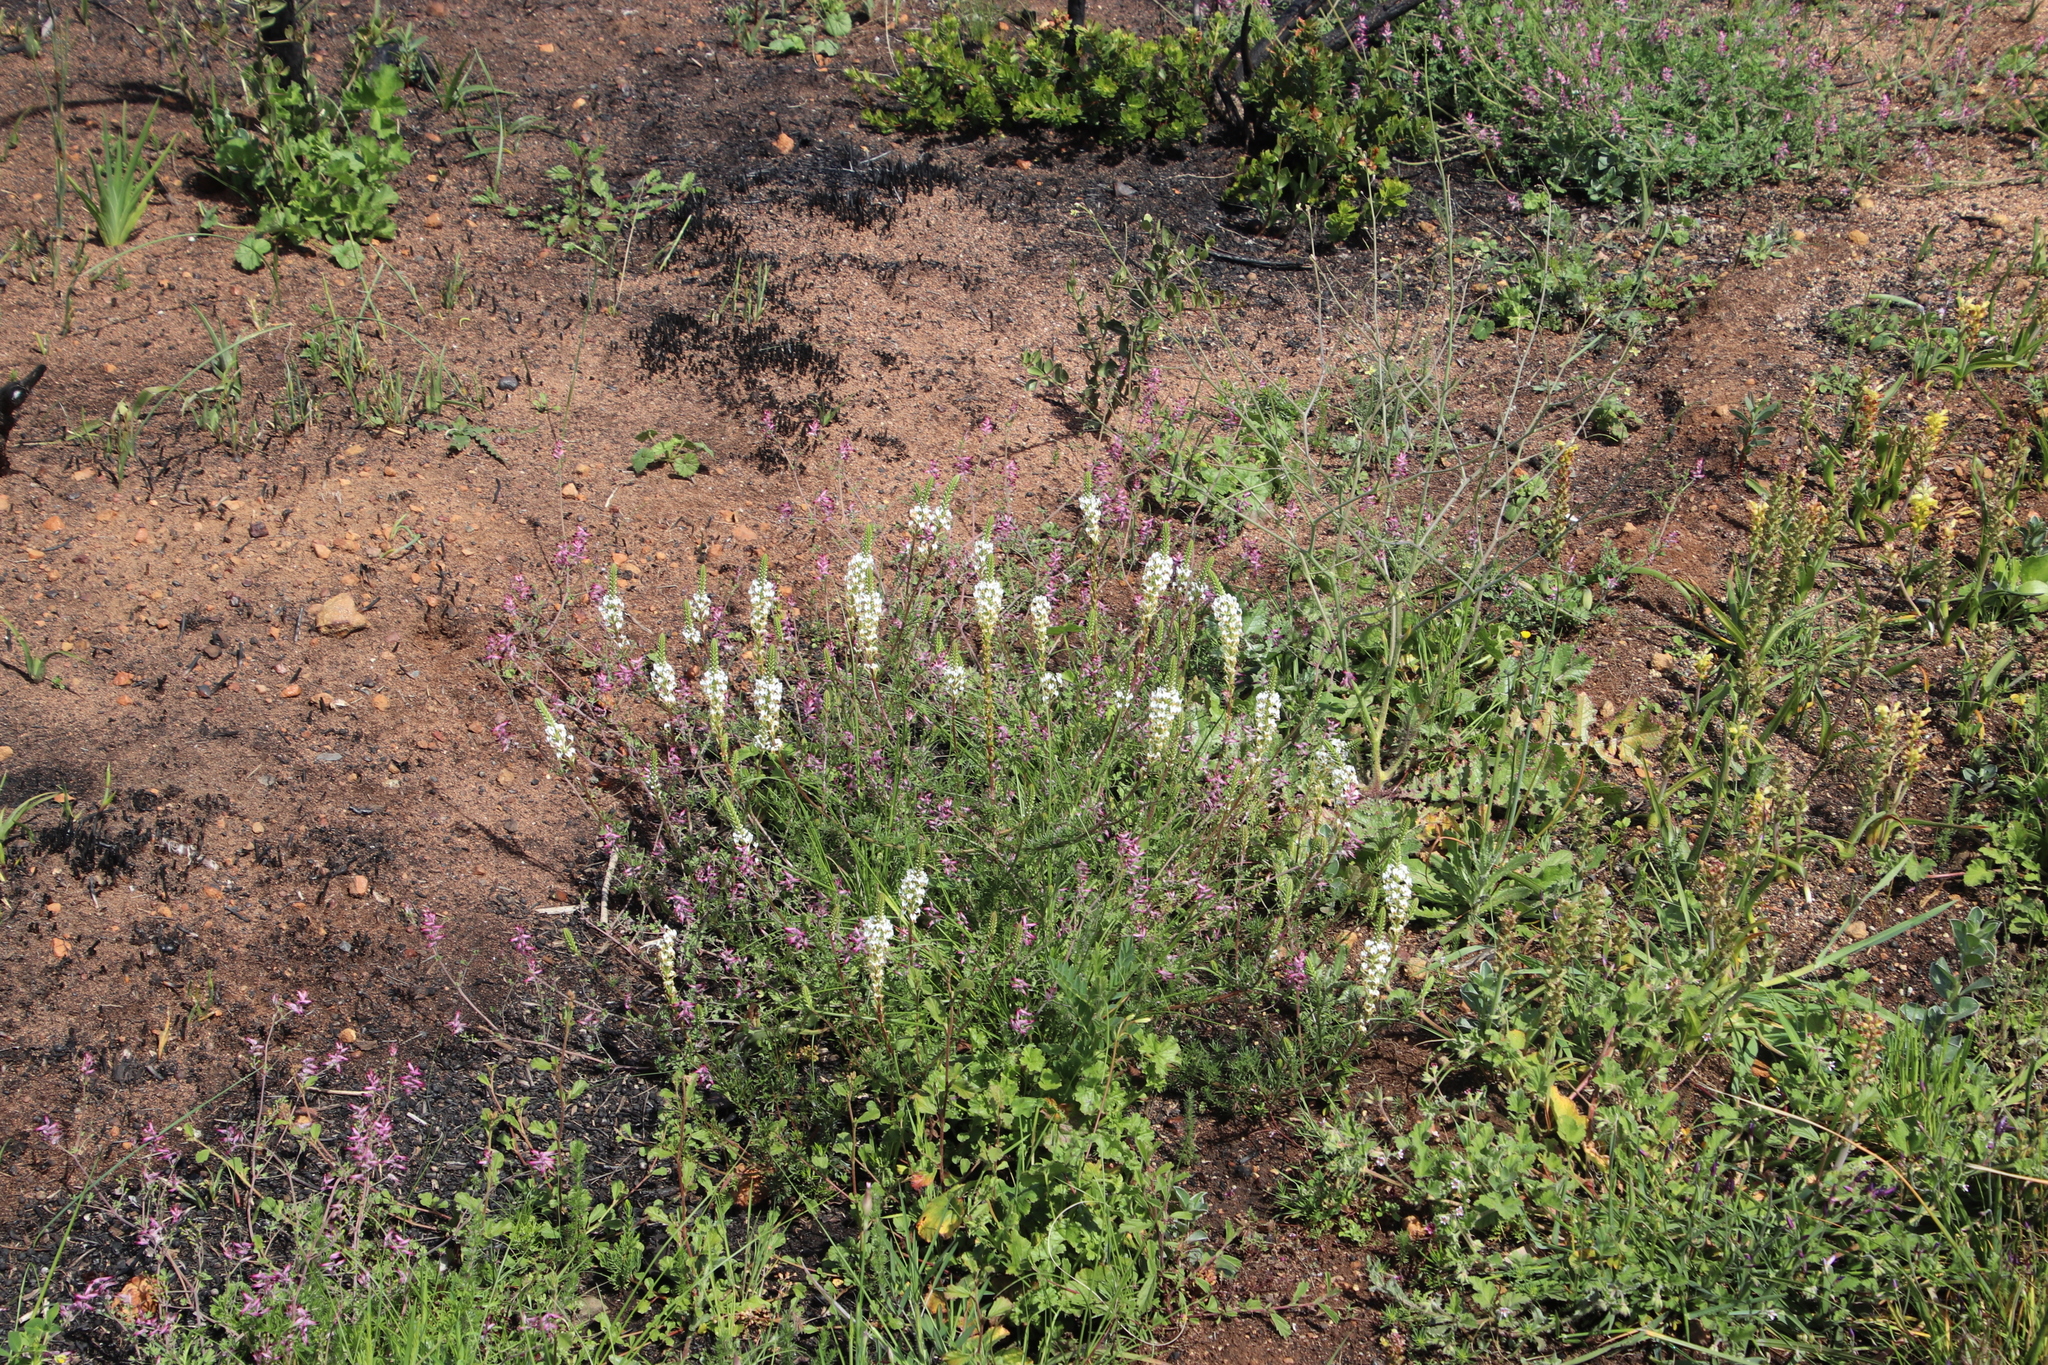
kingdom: Plantae
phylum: Tracheophyta
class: Magnoliopsida
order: Lamiales
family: Scrophulariaceae
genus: Hebenstretia
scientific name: Hebenstretia repens
